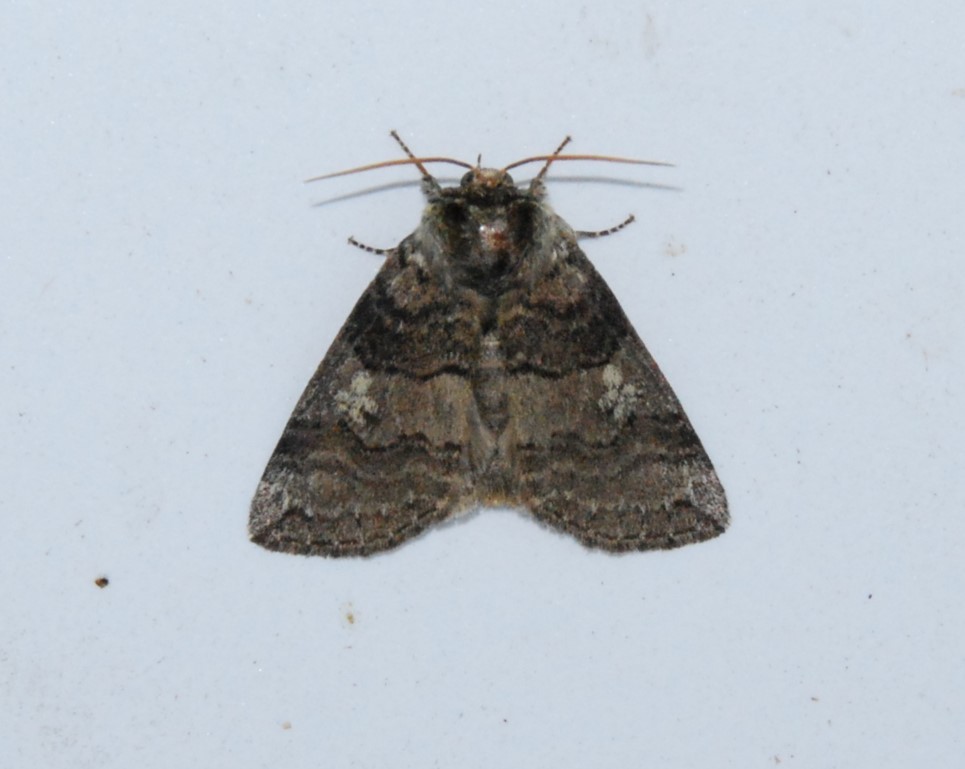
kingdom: Animalia
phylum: Arthropoda
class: Insecta
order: Lepidoptera
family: Drepanidae
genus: Tethea
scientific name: Tethea or
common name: Poplar lutestring
